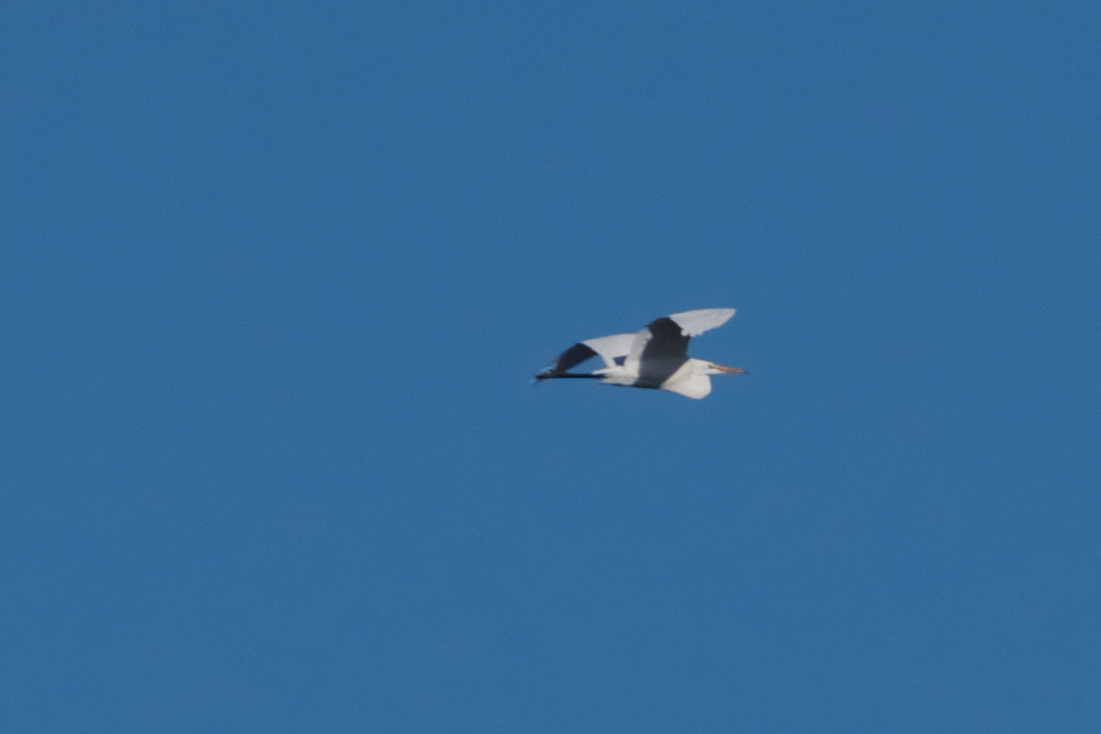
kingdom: Animalia
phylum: Chordata
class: Aves
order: Pelecaniformes
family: Ardeidae
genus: Ardea
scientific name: Ardea alba
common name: Great egret
